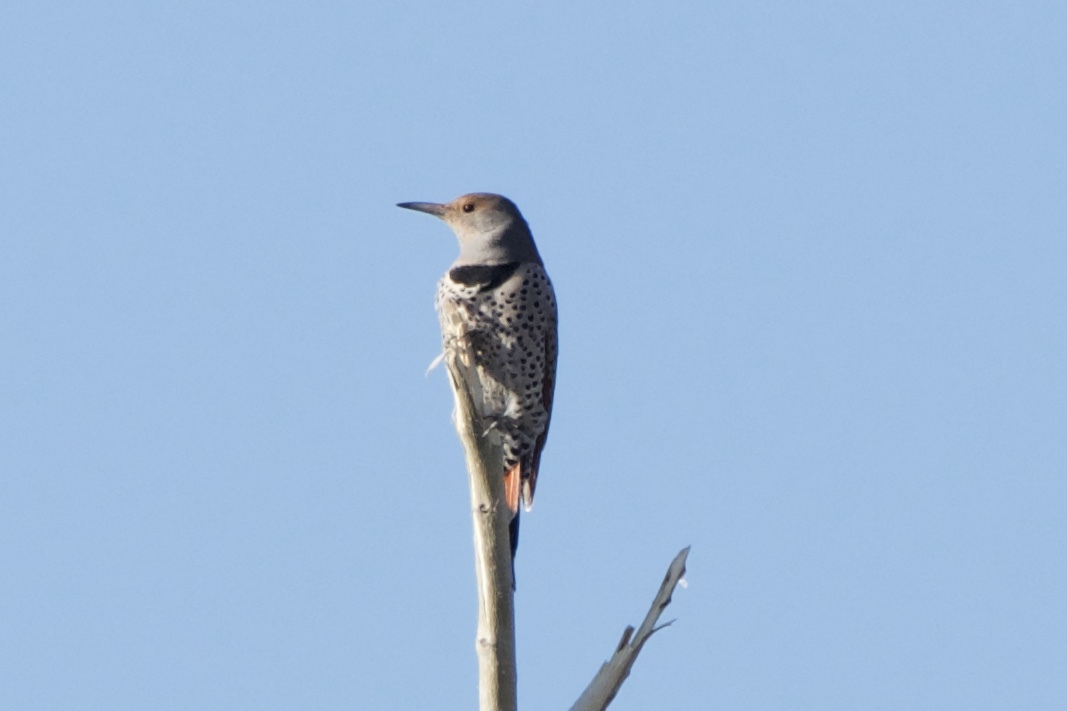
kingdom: Animalia
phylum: Chordata
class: Aves
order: Piciformes
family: Picidae
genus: Colaptes
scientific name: Colaptes
